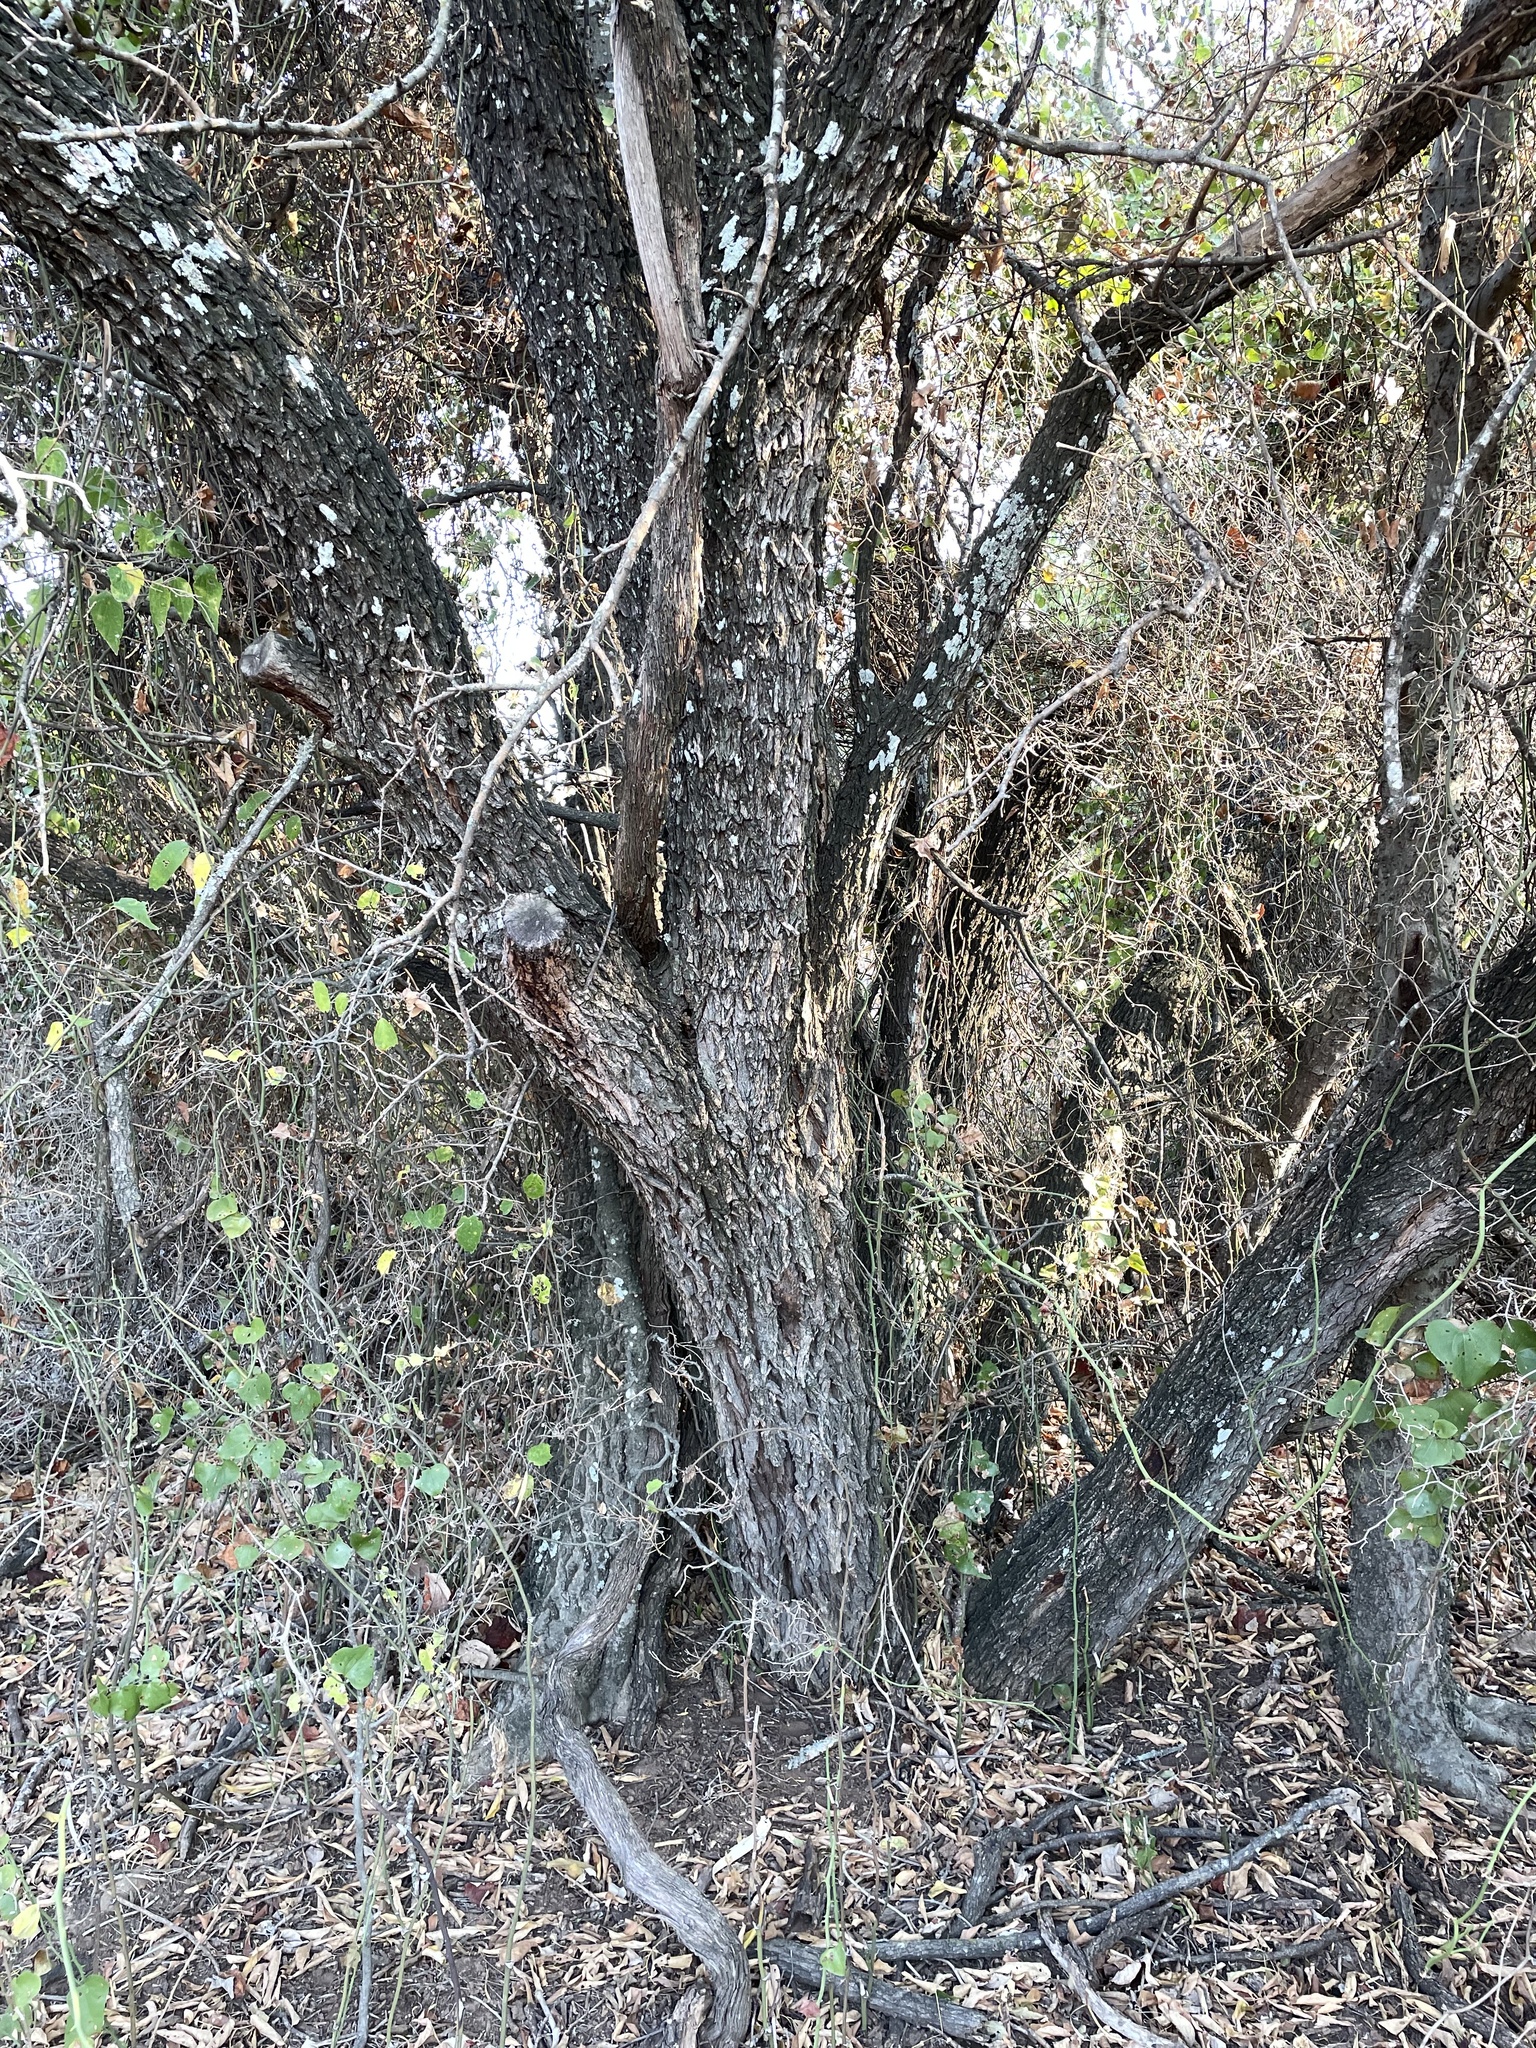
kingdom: Plantae
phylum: Tracheophyta
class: Magnoliopsida
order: Fabales
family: Fabaceae
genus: Prosopis
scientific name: Prosopis glandulosa
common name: Honey mesquite
